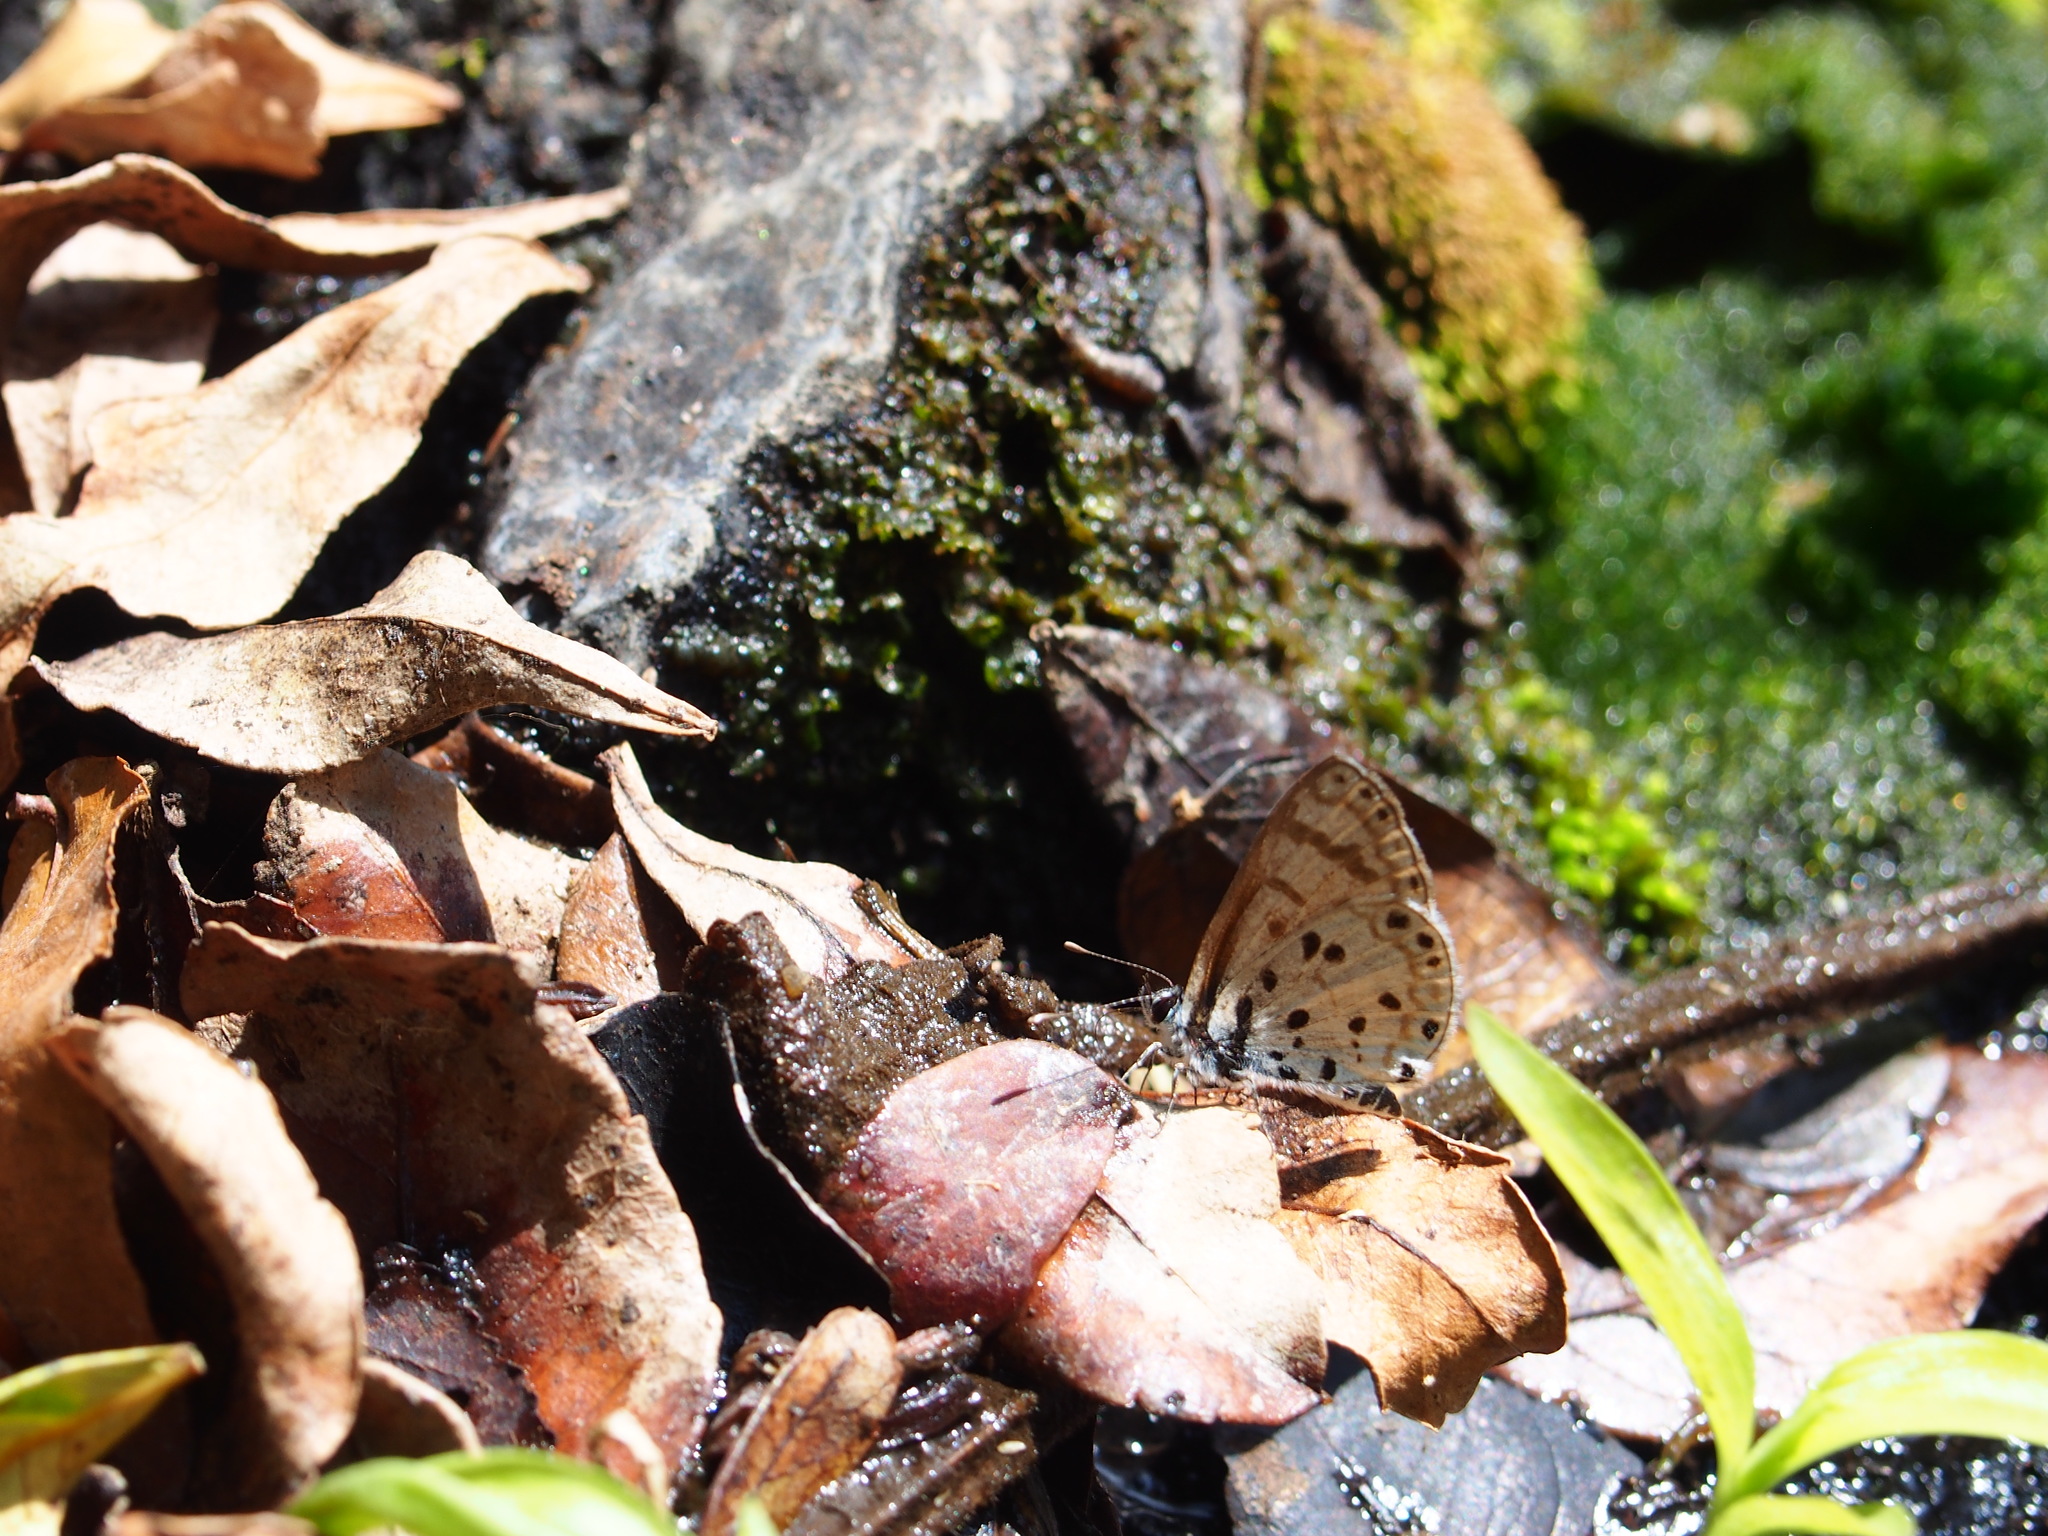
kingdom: Animalia
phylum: Arthropoda
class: Insecta
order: Lepidoptera
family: Lycaenidae
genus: Azanus
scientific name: Azanus natalensis
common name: Natal babul blue
